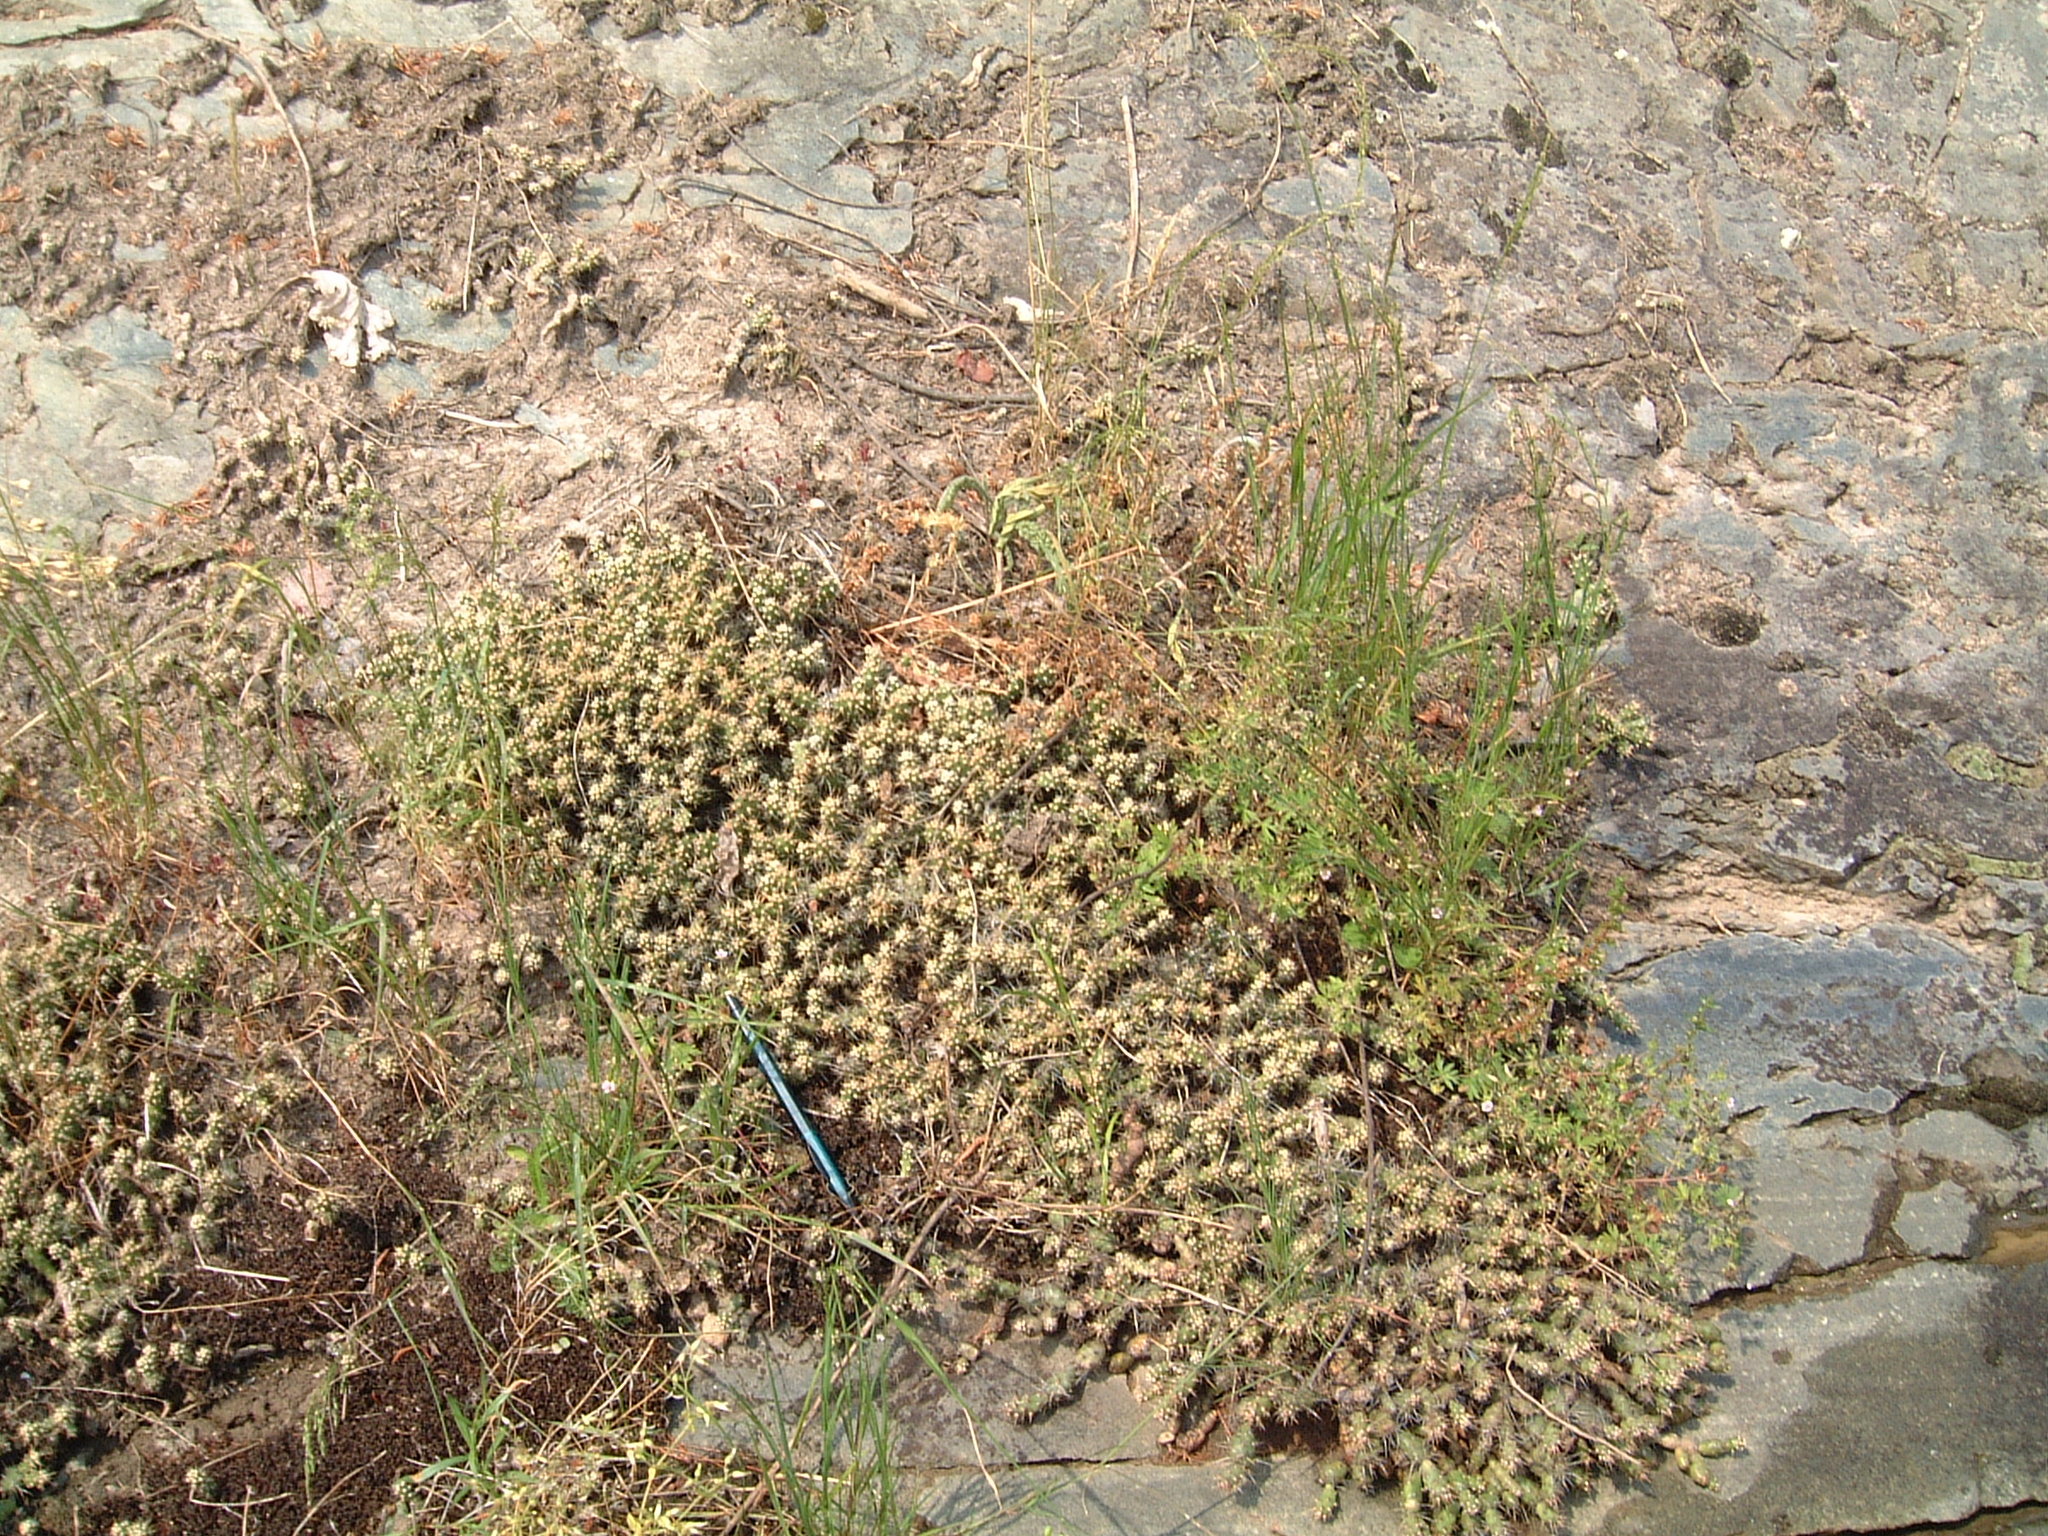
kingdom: Plantae
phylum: Tracheophyta
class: Magnoliopsida
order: Caryophyllales
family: Cactaceae
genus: Opuntia
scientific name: Opuntia fragilis
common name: Brittle cactus
